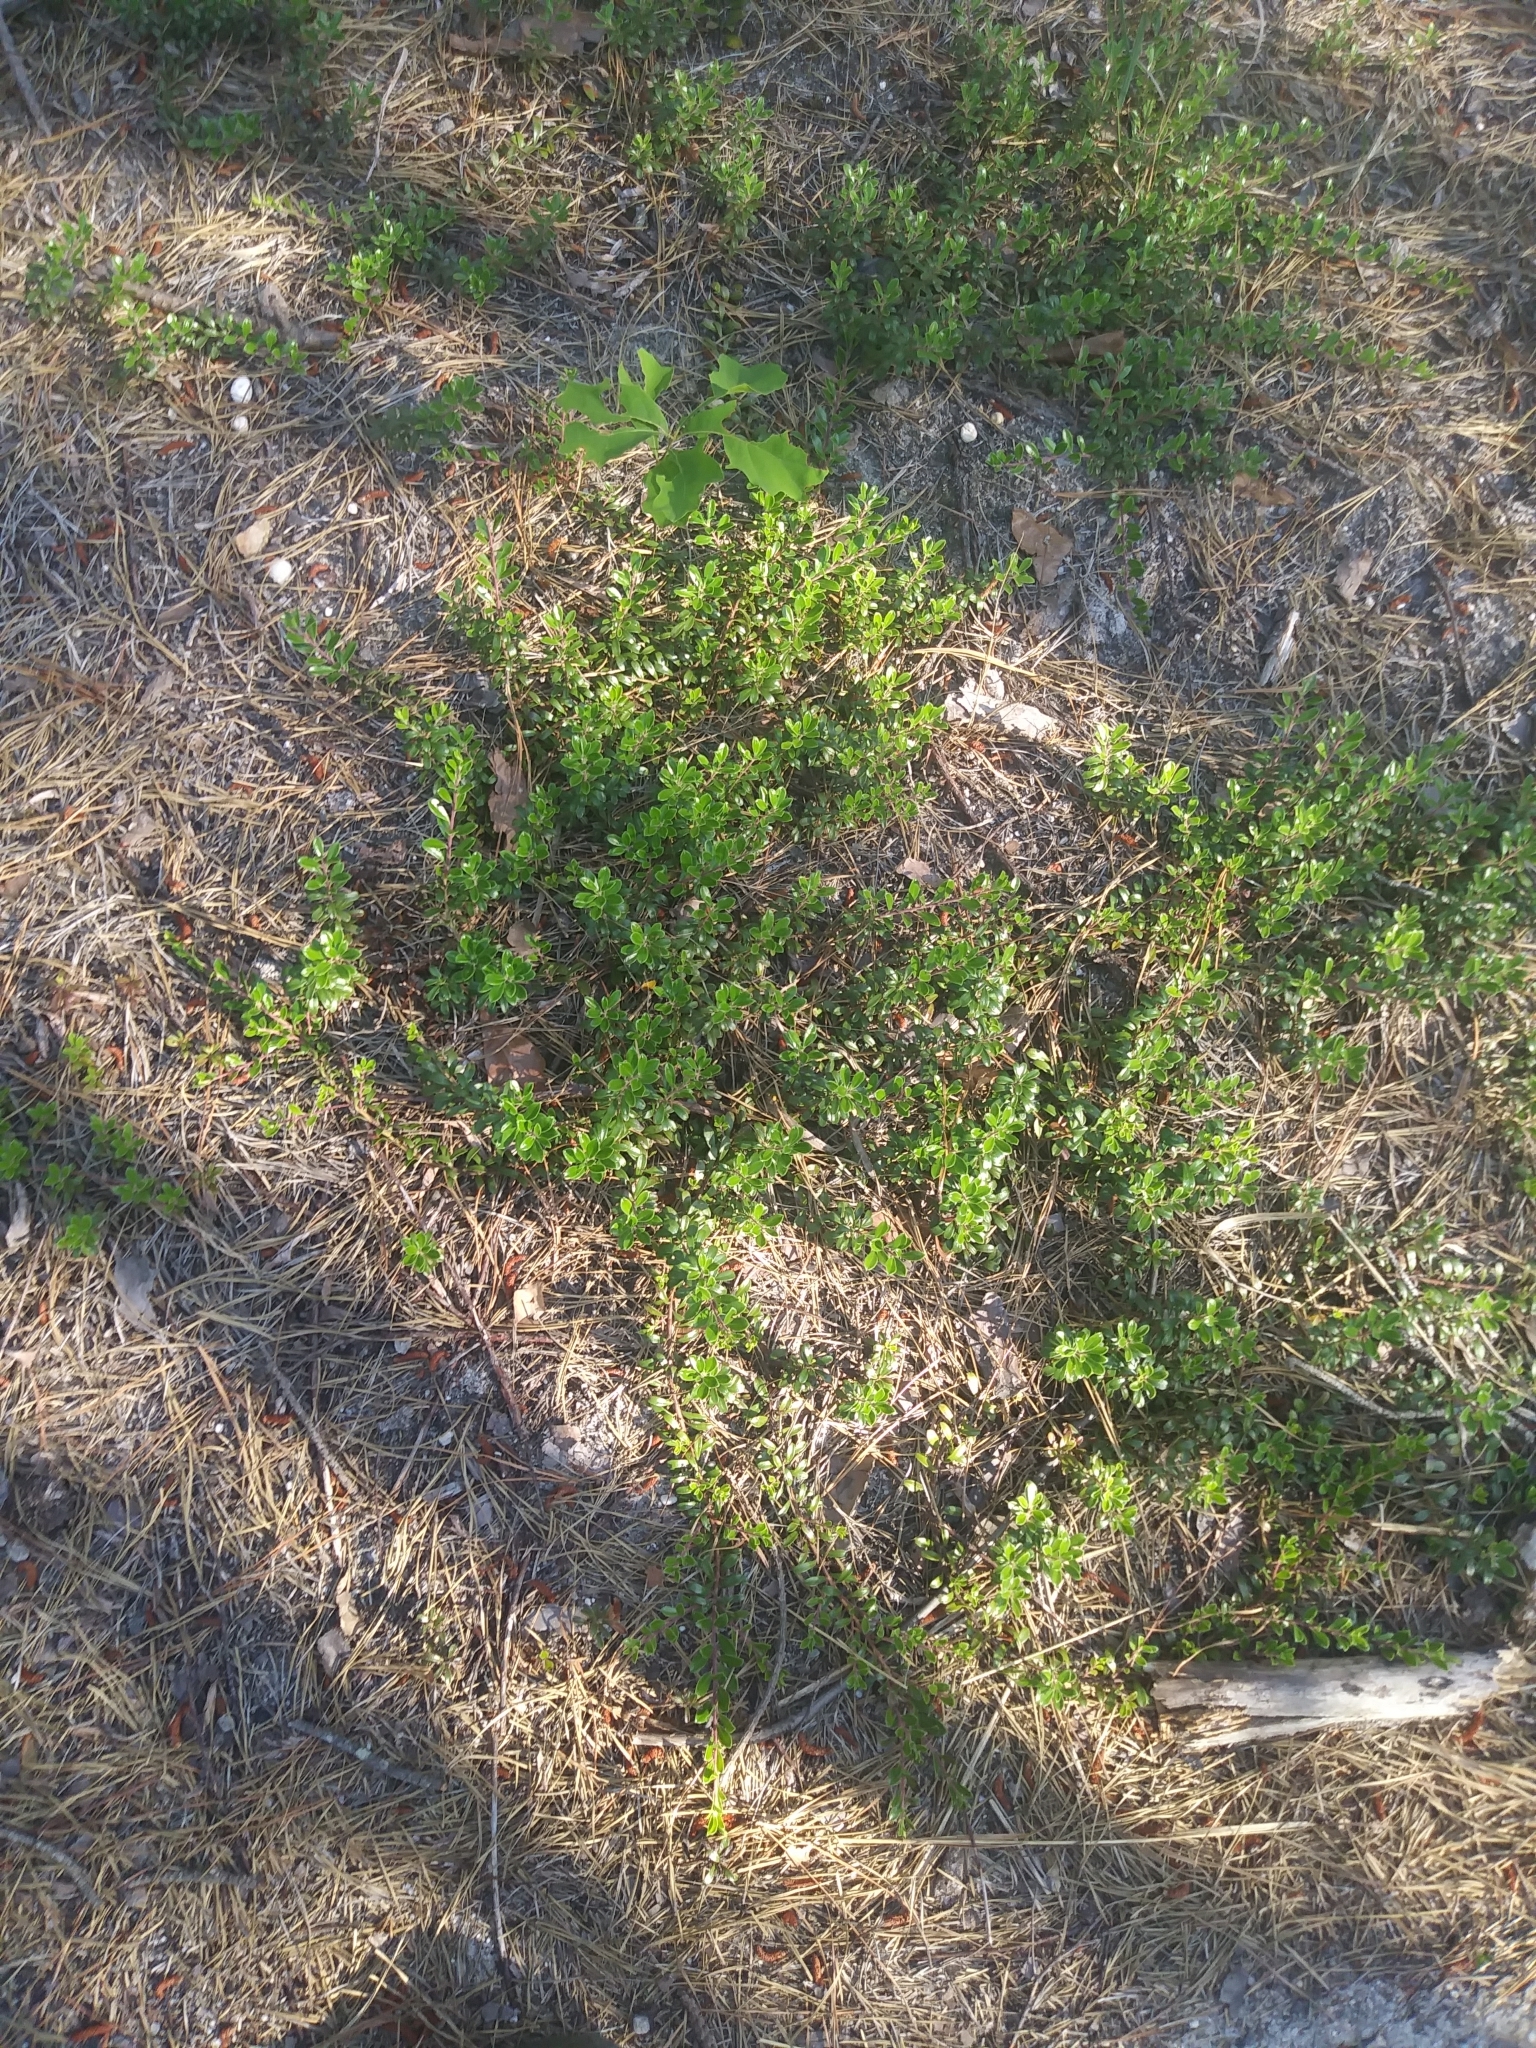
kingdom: Plantae
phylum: Tracheophyta
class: Magnoliopsida
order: Ericales
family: Ericaceae
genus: Arctostaphylos
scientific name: Arctostaphylos uva-ursi
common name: Bearberry
